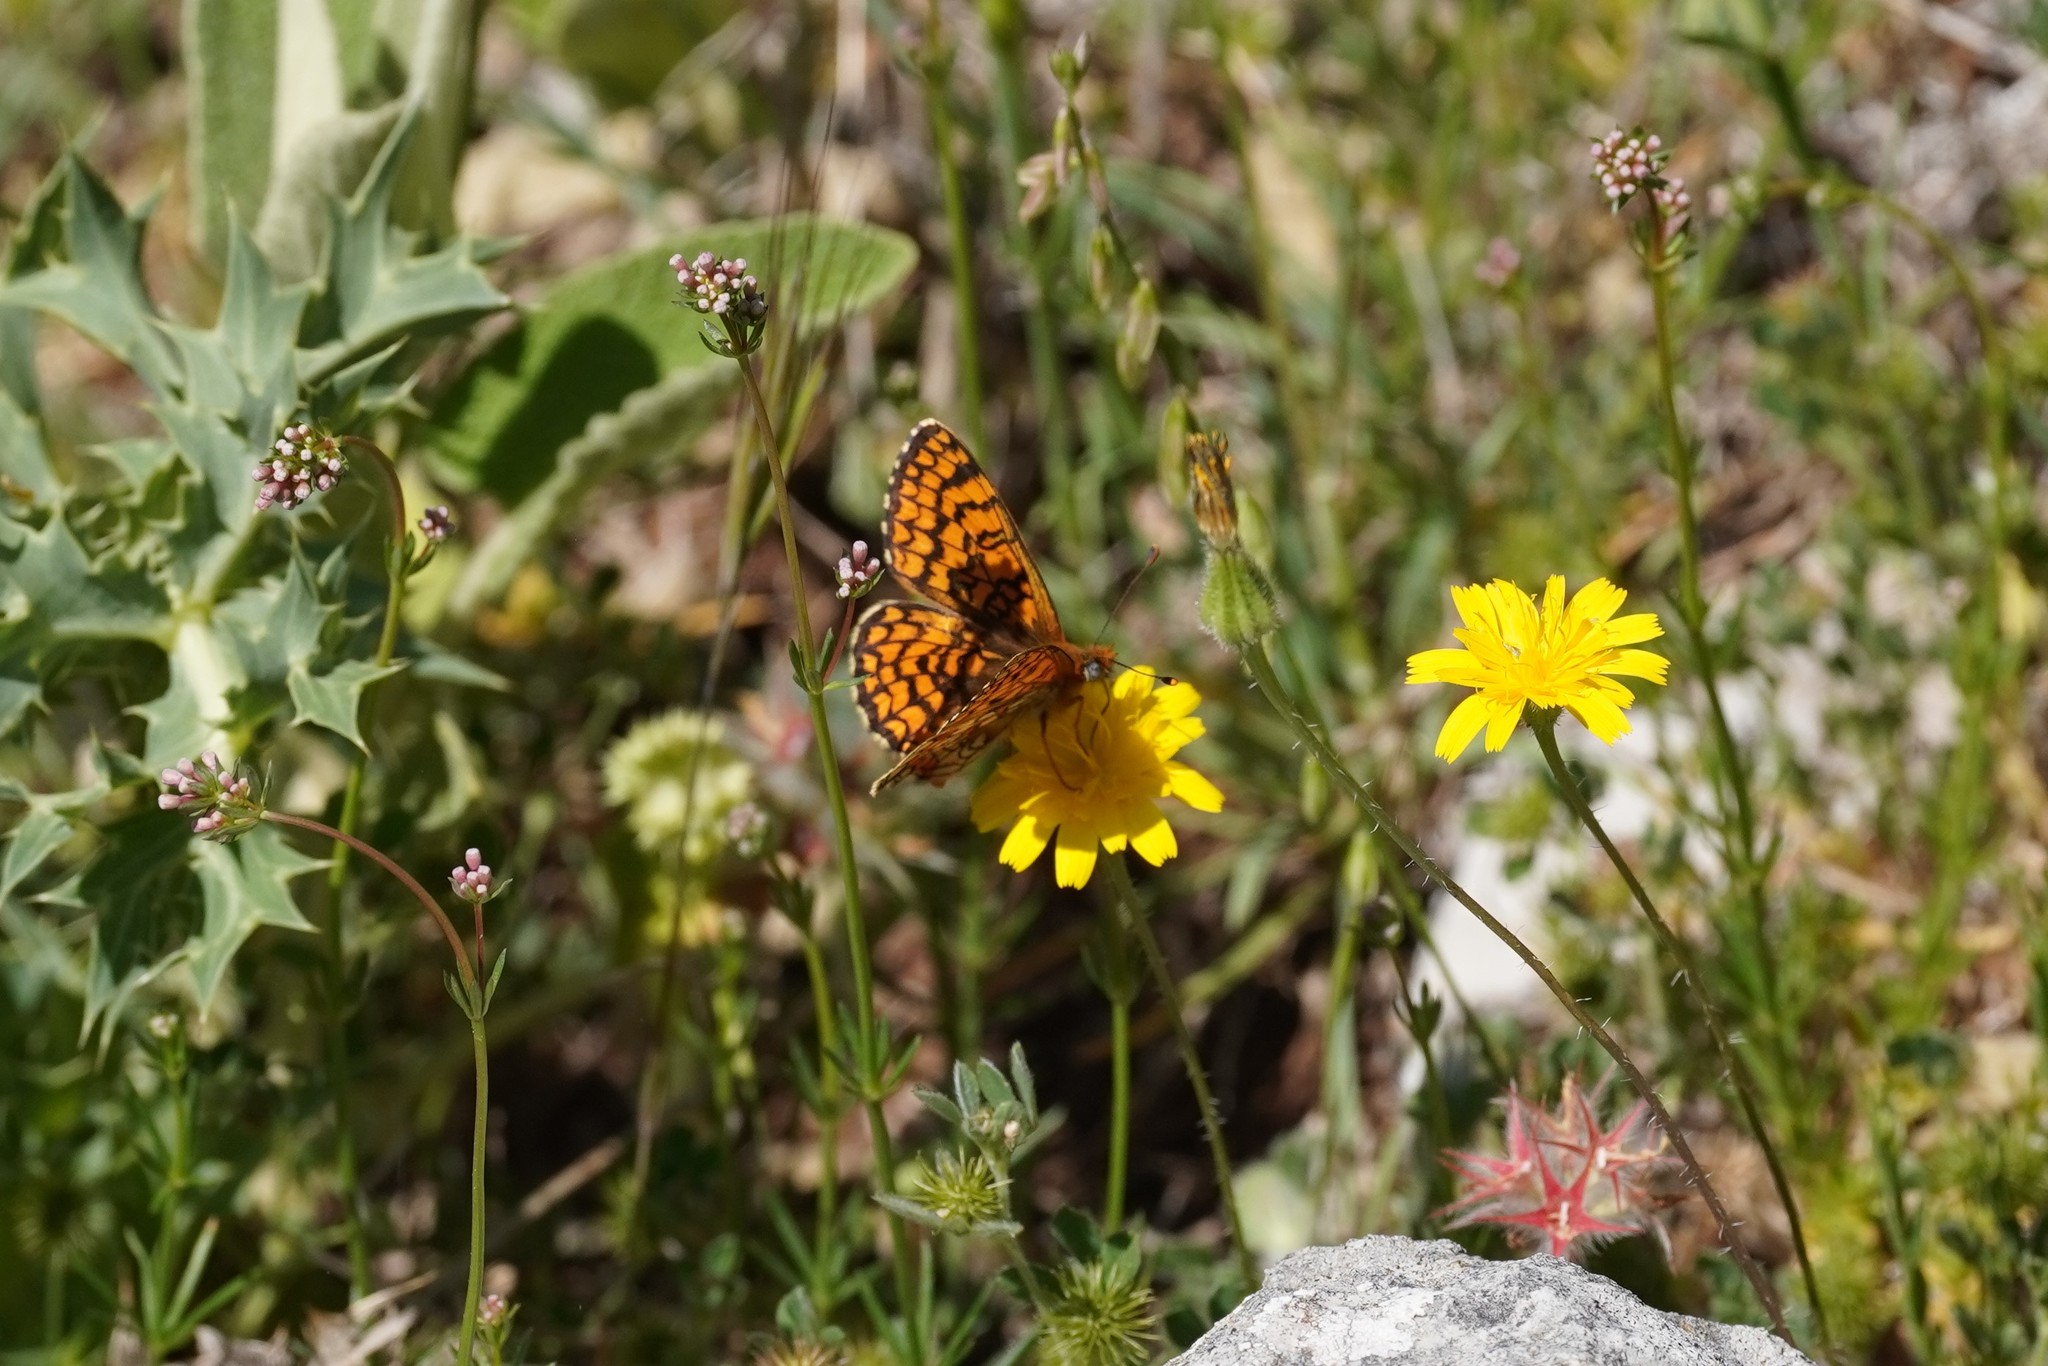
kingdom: Animalia
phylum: Arthropoda
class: Insecta
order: Lepidoptera
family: Nymphalidae
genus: Melitaea
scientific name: Melitaea deione
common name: Provençal fritillary
